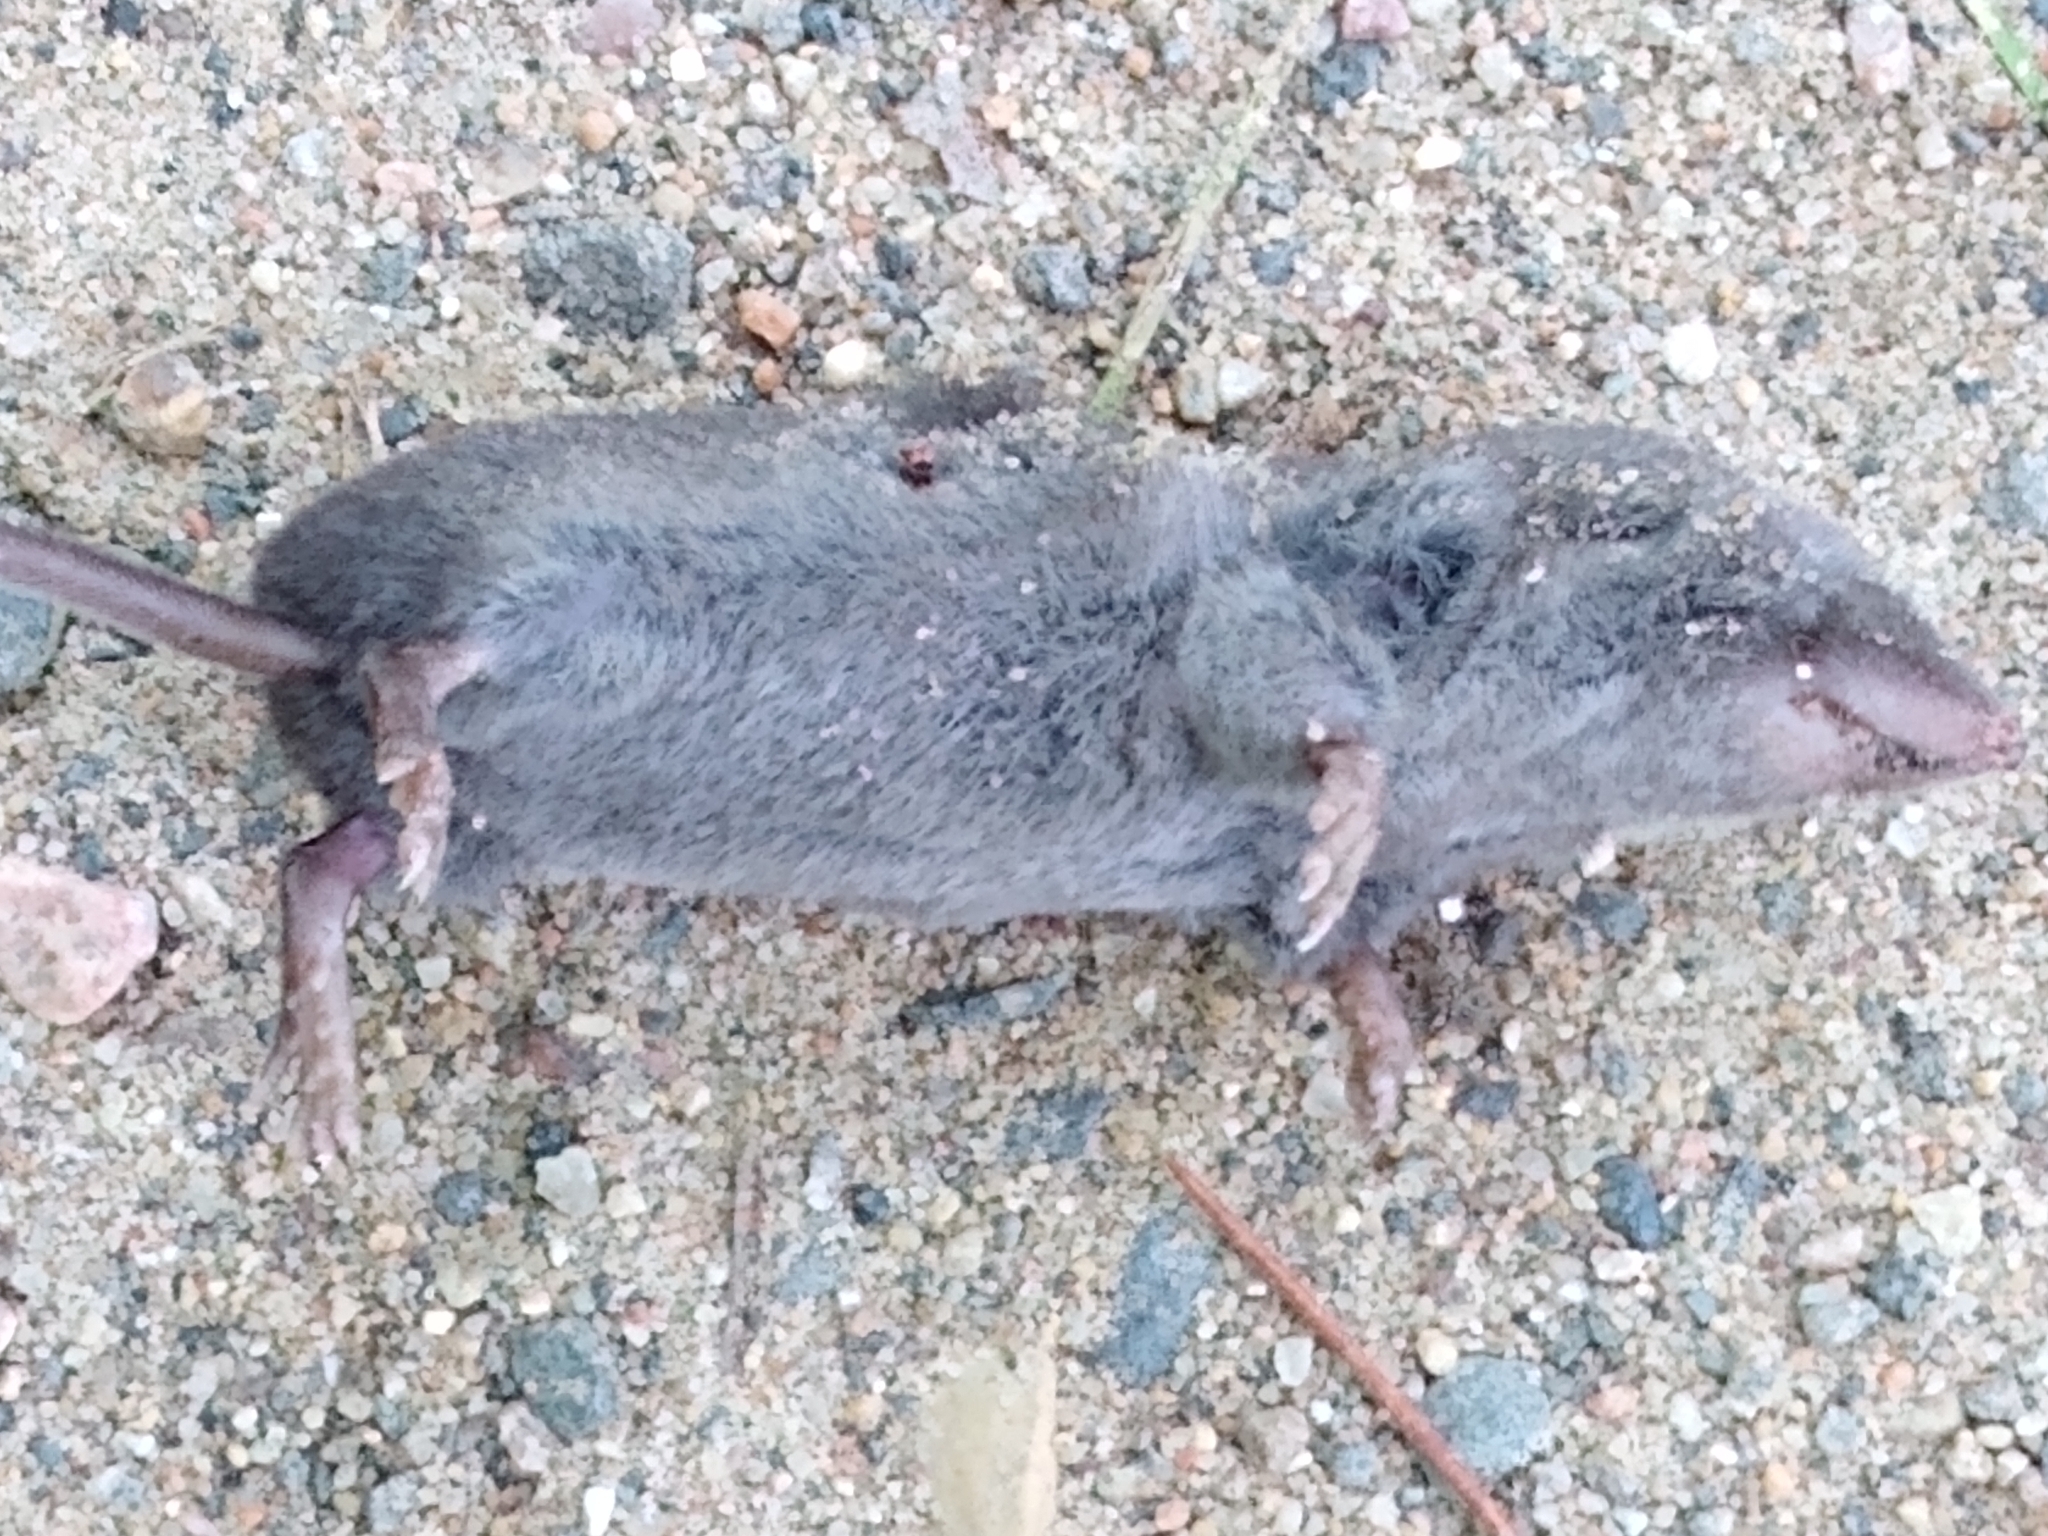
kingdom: Animalia
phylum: Chordata
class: Mammalia
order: Soricomorpha
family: Soricidae
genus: Blarina
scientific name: Blarina brevicauda
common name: Northern short-tailed shrew
